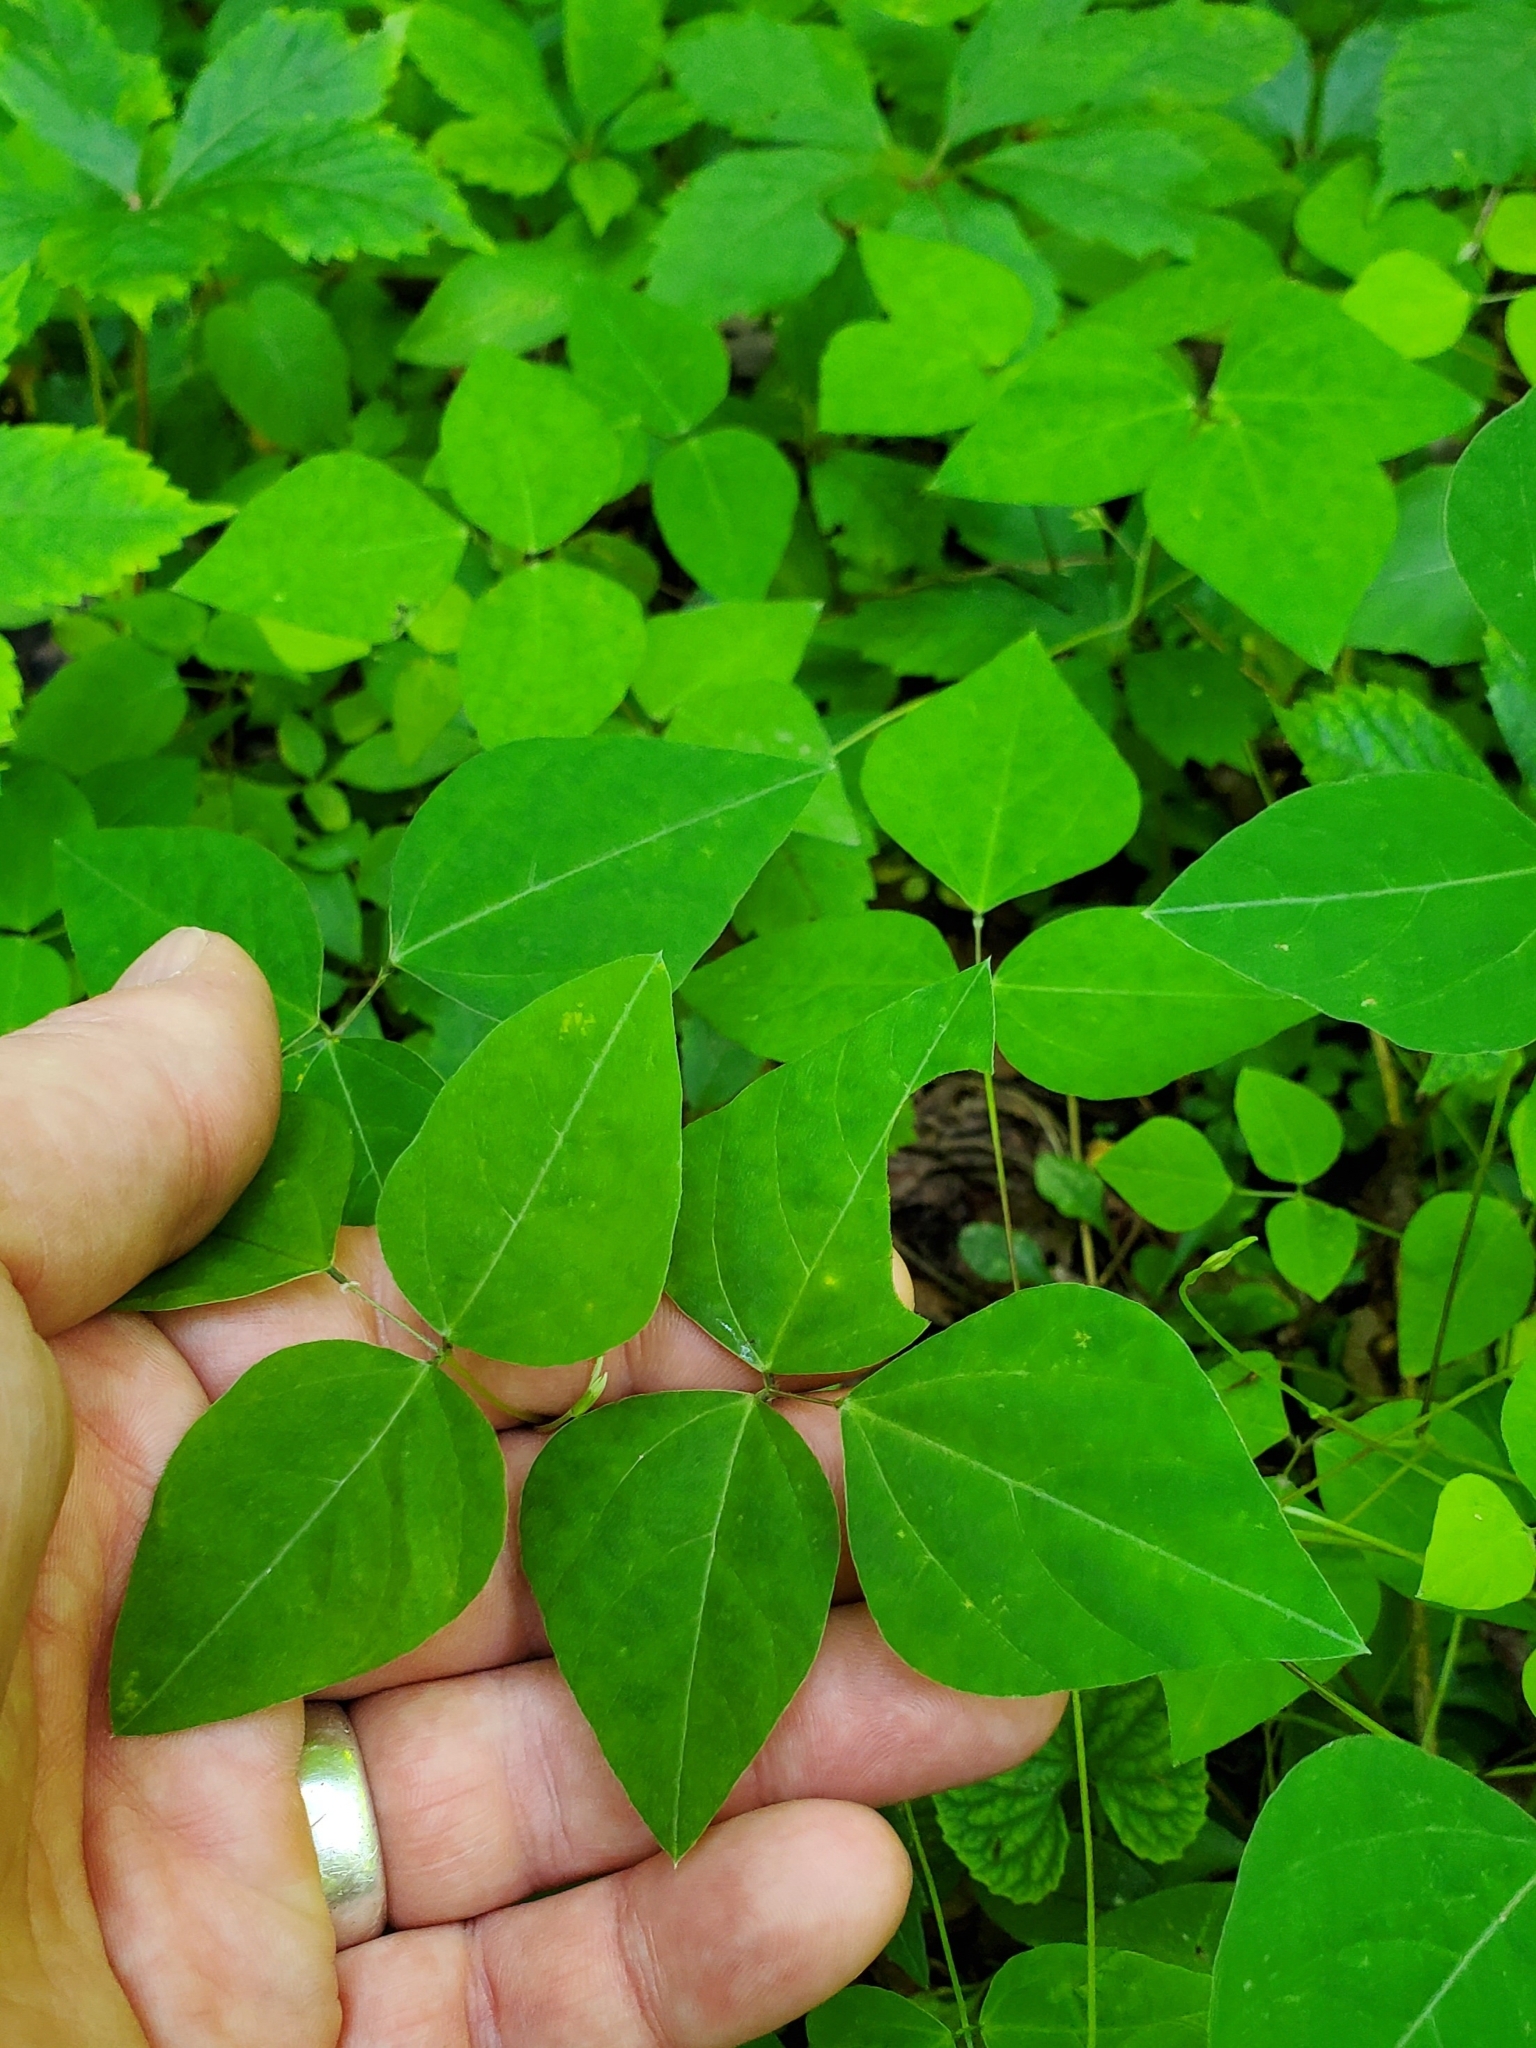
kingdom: Plantae
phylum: Tracheophyta
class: Magnoliopsida
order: Fabales
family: Fabaceae
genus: Amphicarpaea
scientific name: Amphicarpaea bracteata
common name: American hog peanut
